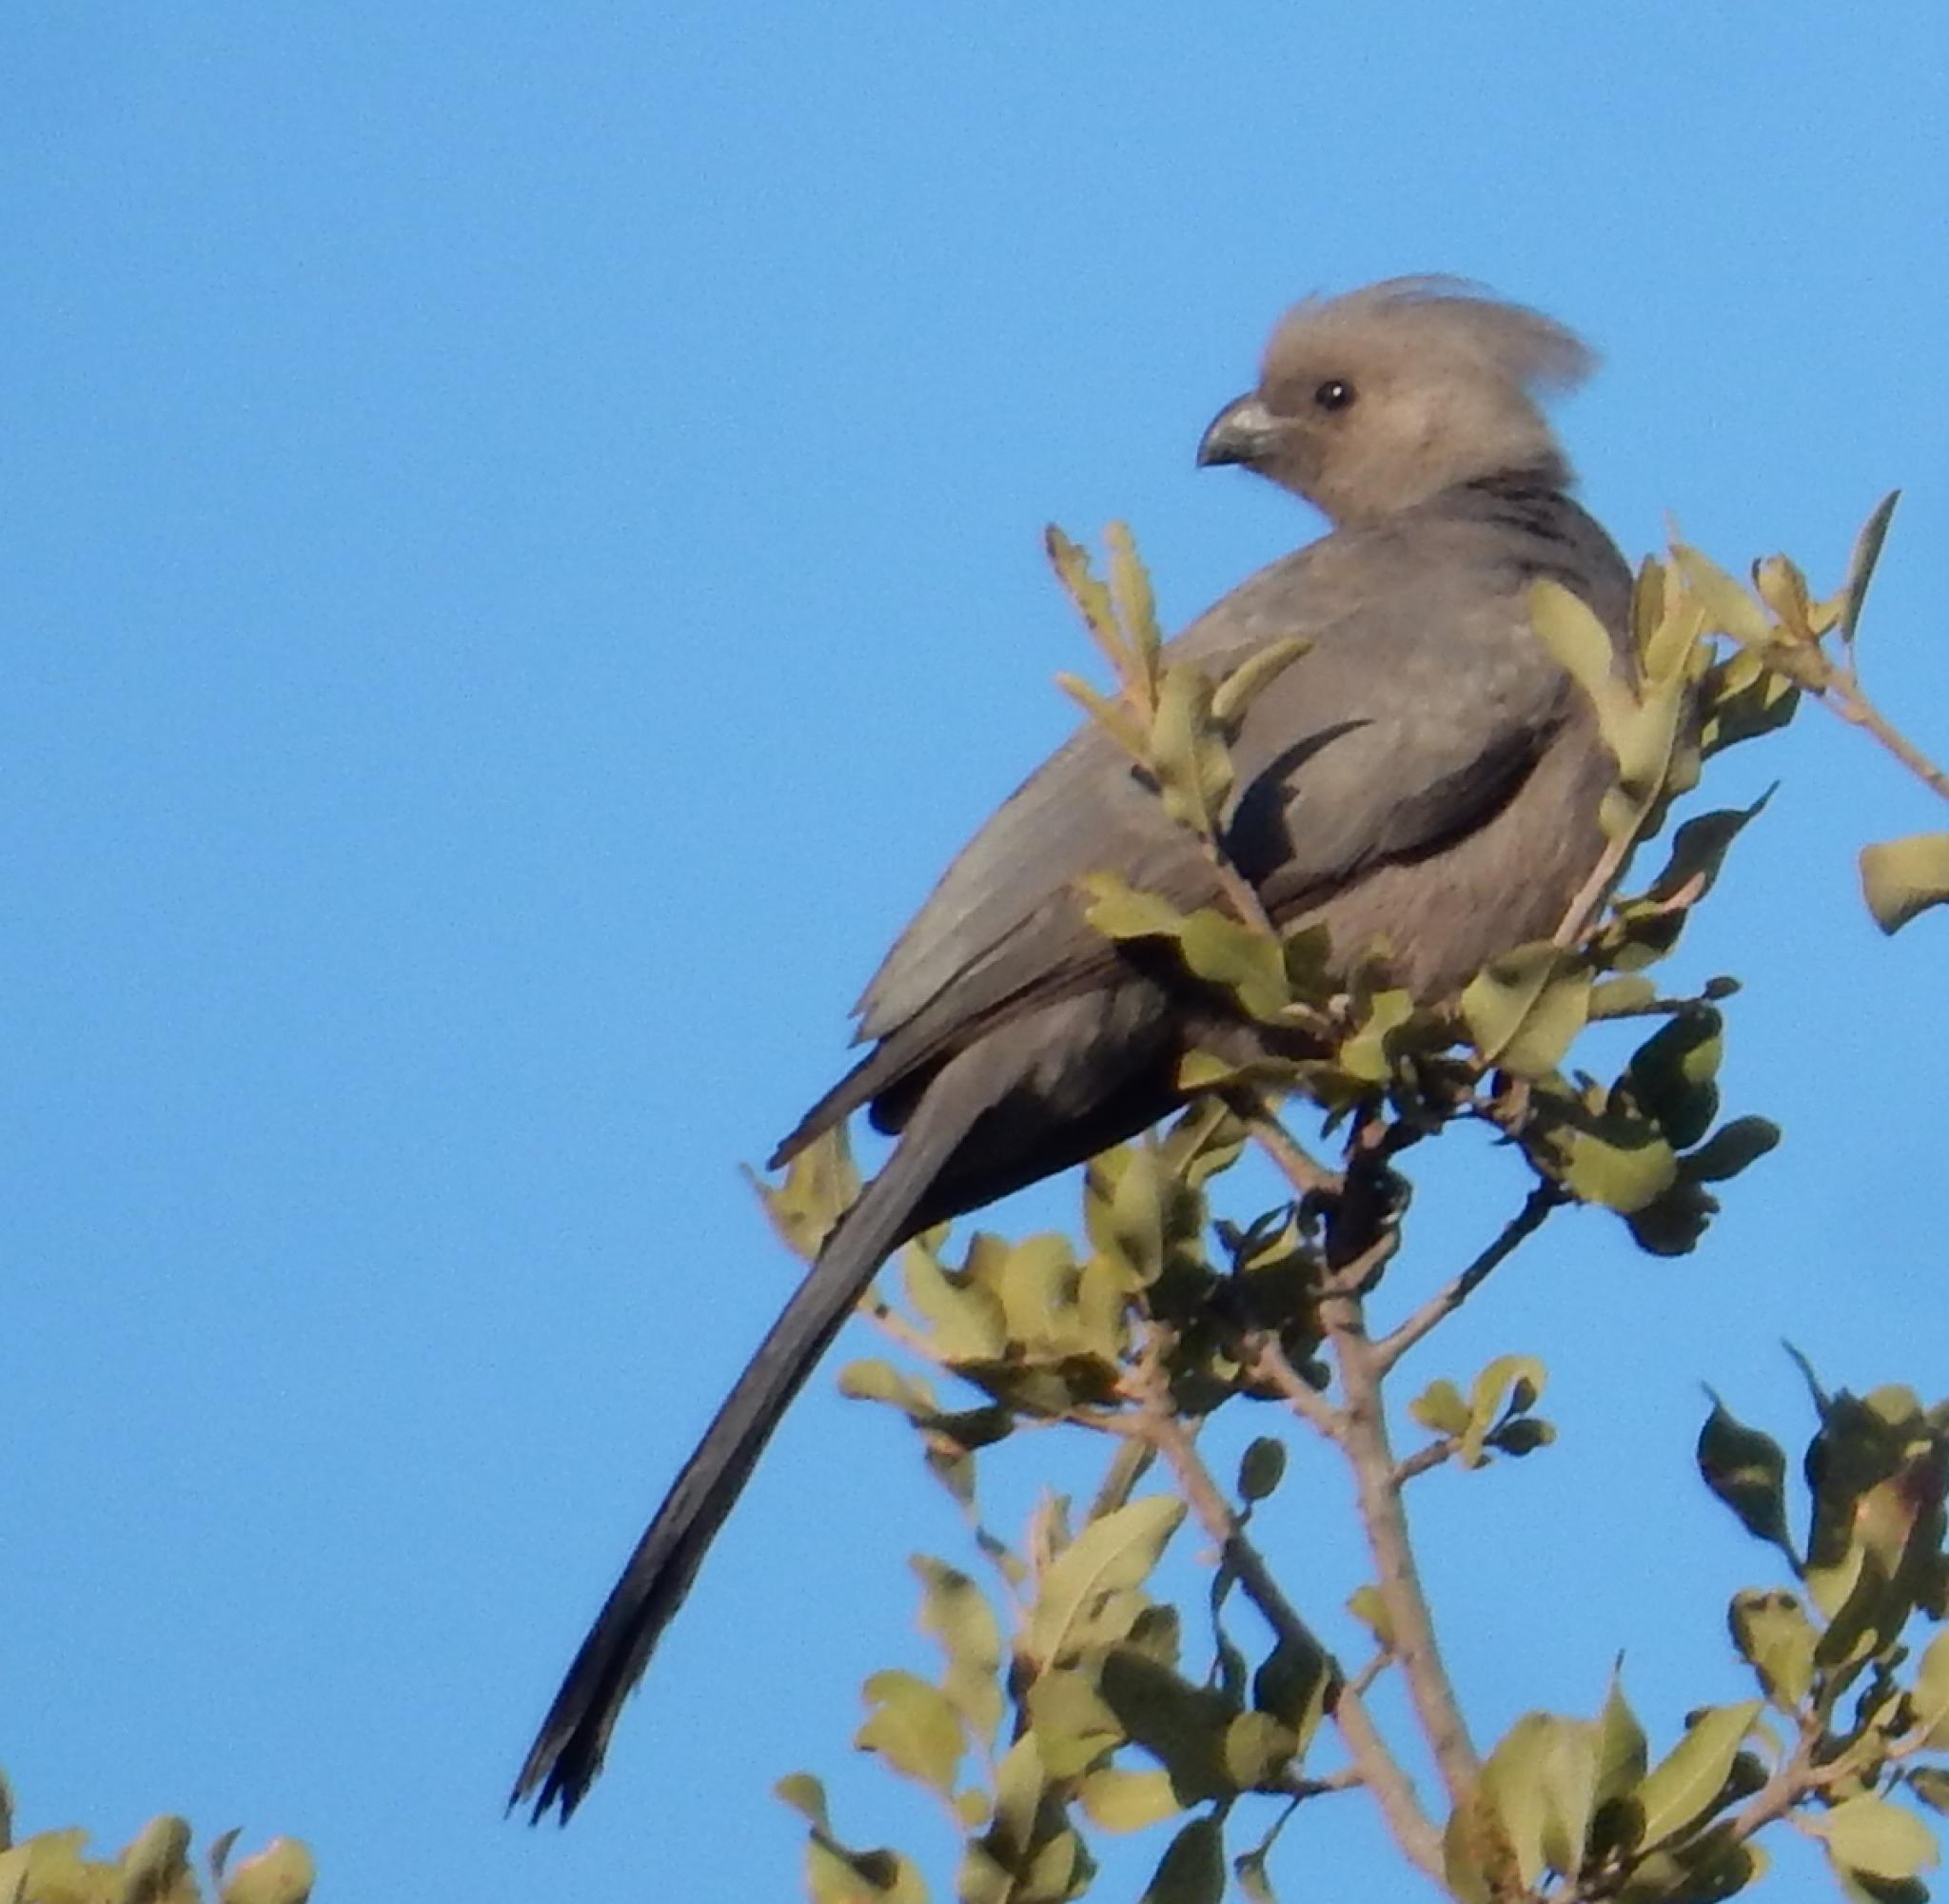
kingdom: Animalia
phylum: Chordata
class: Aves
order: Musophagiformes
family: Musophagidae
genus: Corythaixoides
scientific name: Corythaixoides concolor
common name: Grey go-away-bird
